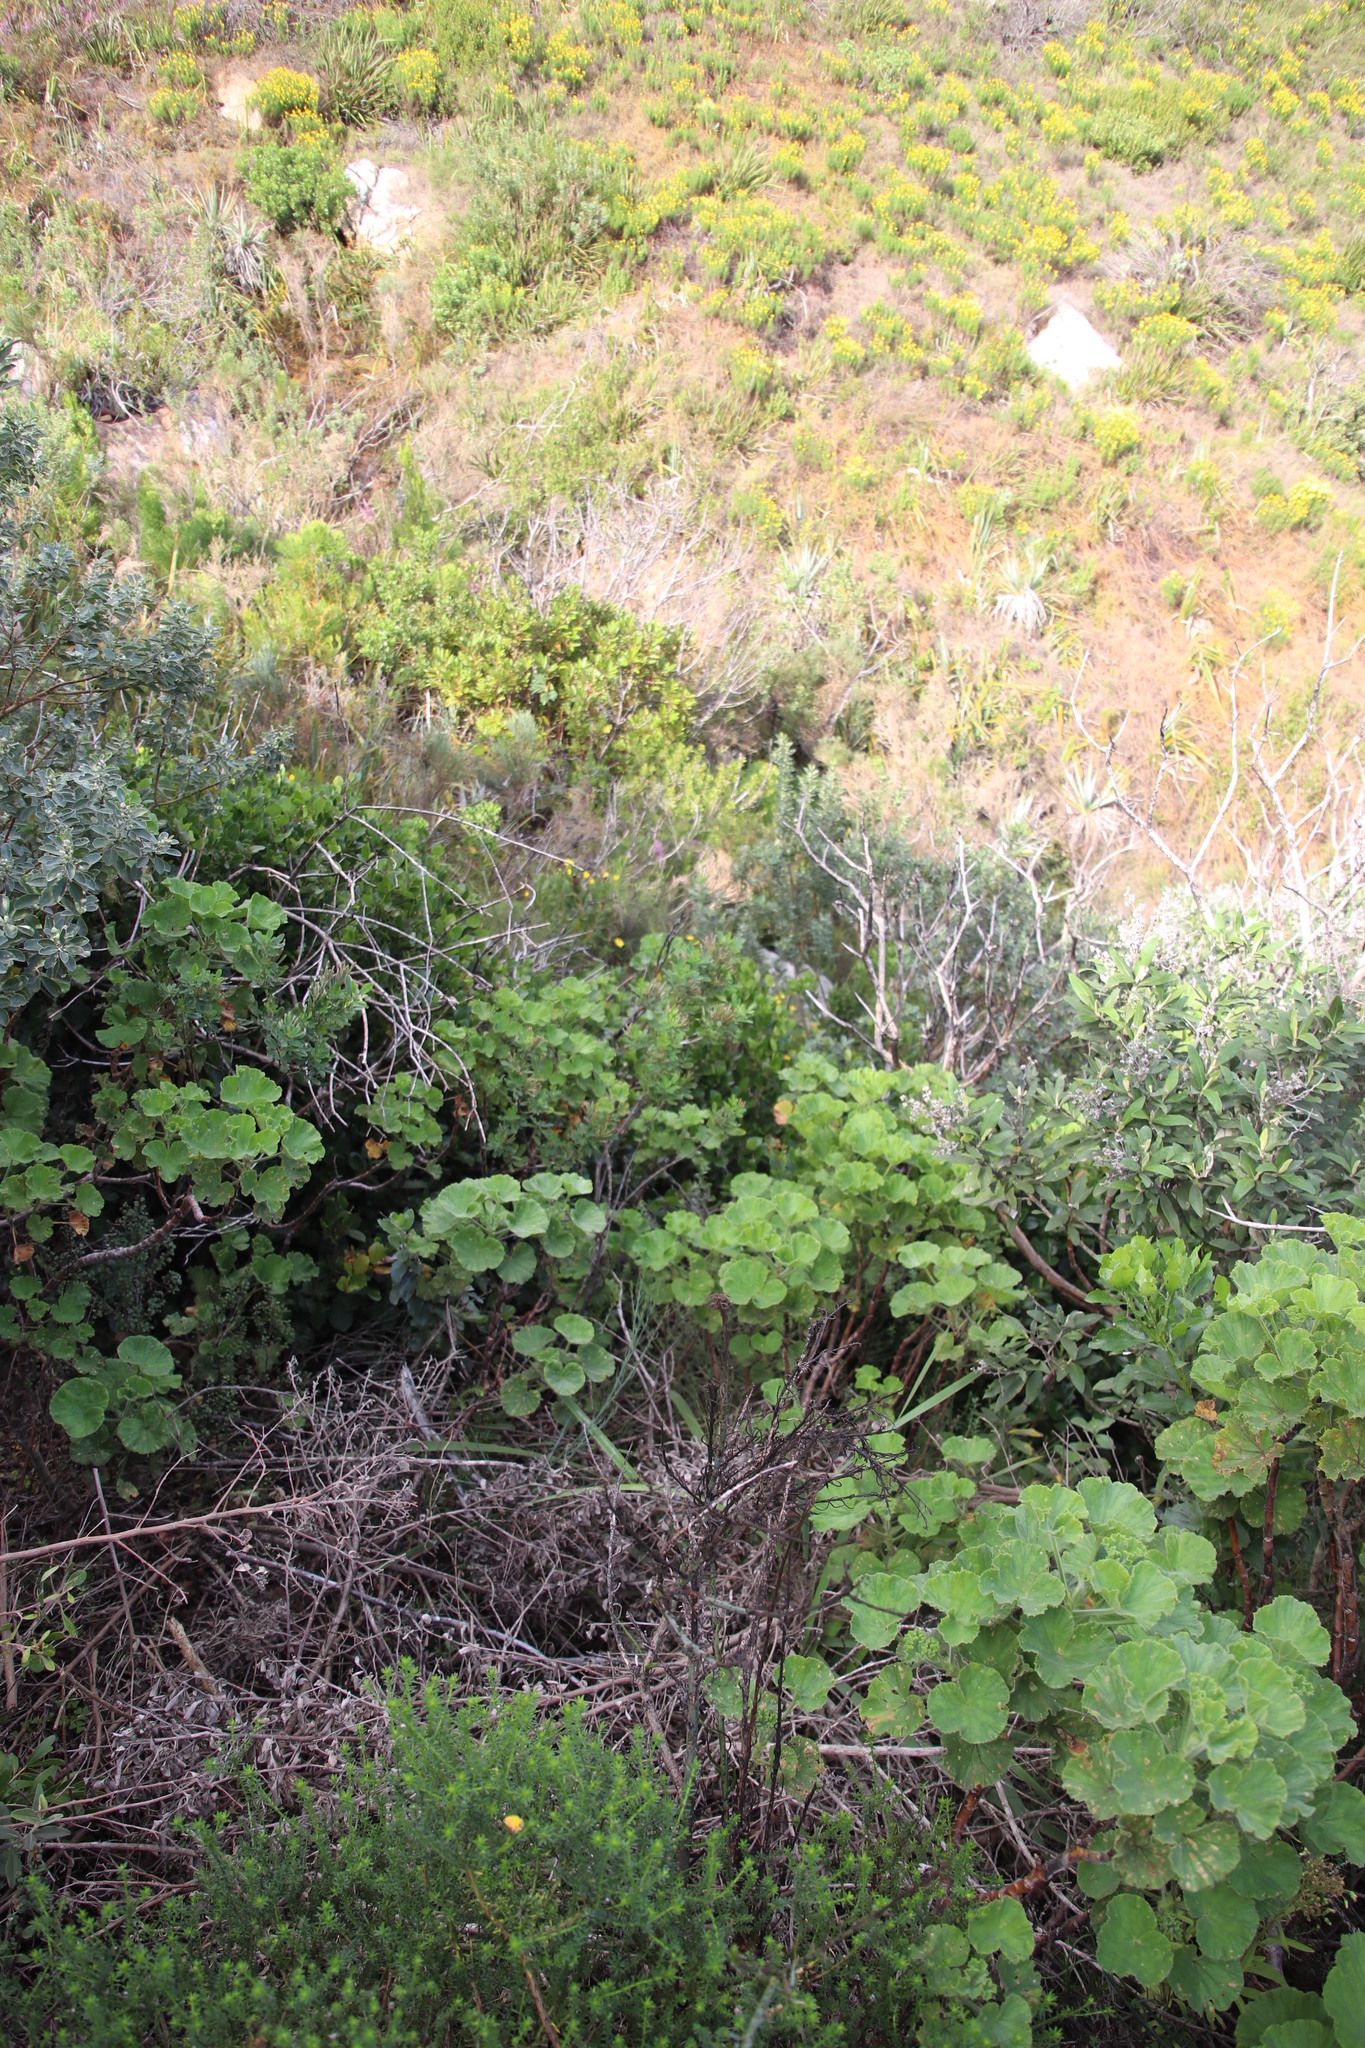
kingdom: Plantae
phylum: Tracheophyta
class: Magnoliopsida
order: Geraniales
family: Geraniaceae
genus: Pelargonium
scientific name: Pelargonium cucullatum
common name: Tree pelargonium
